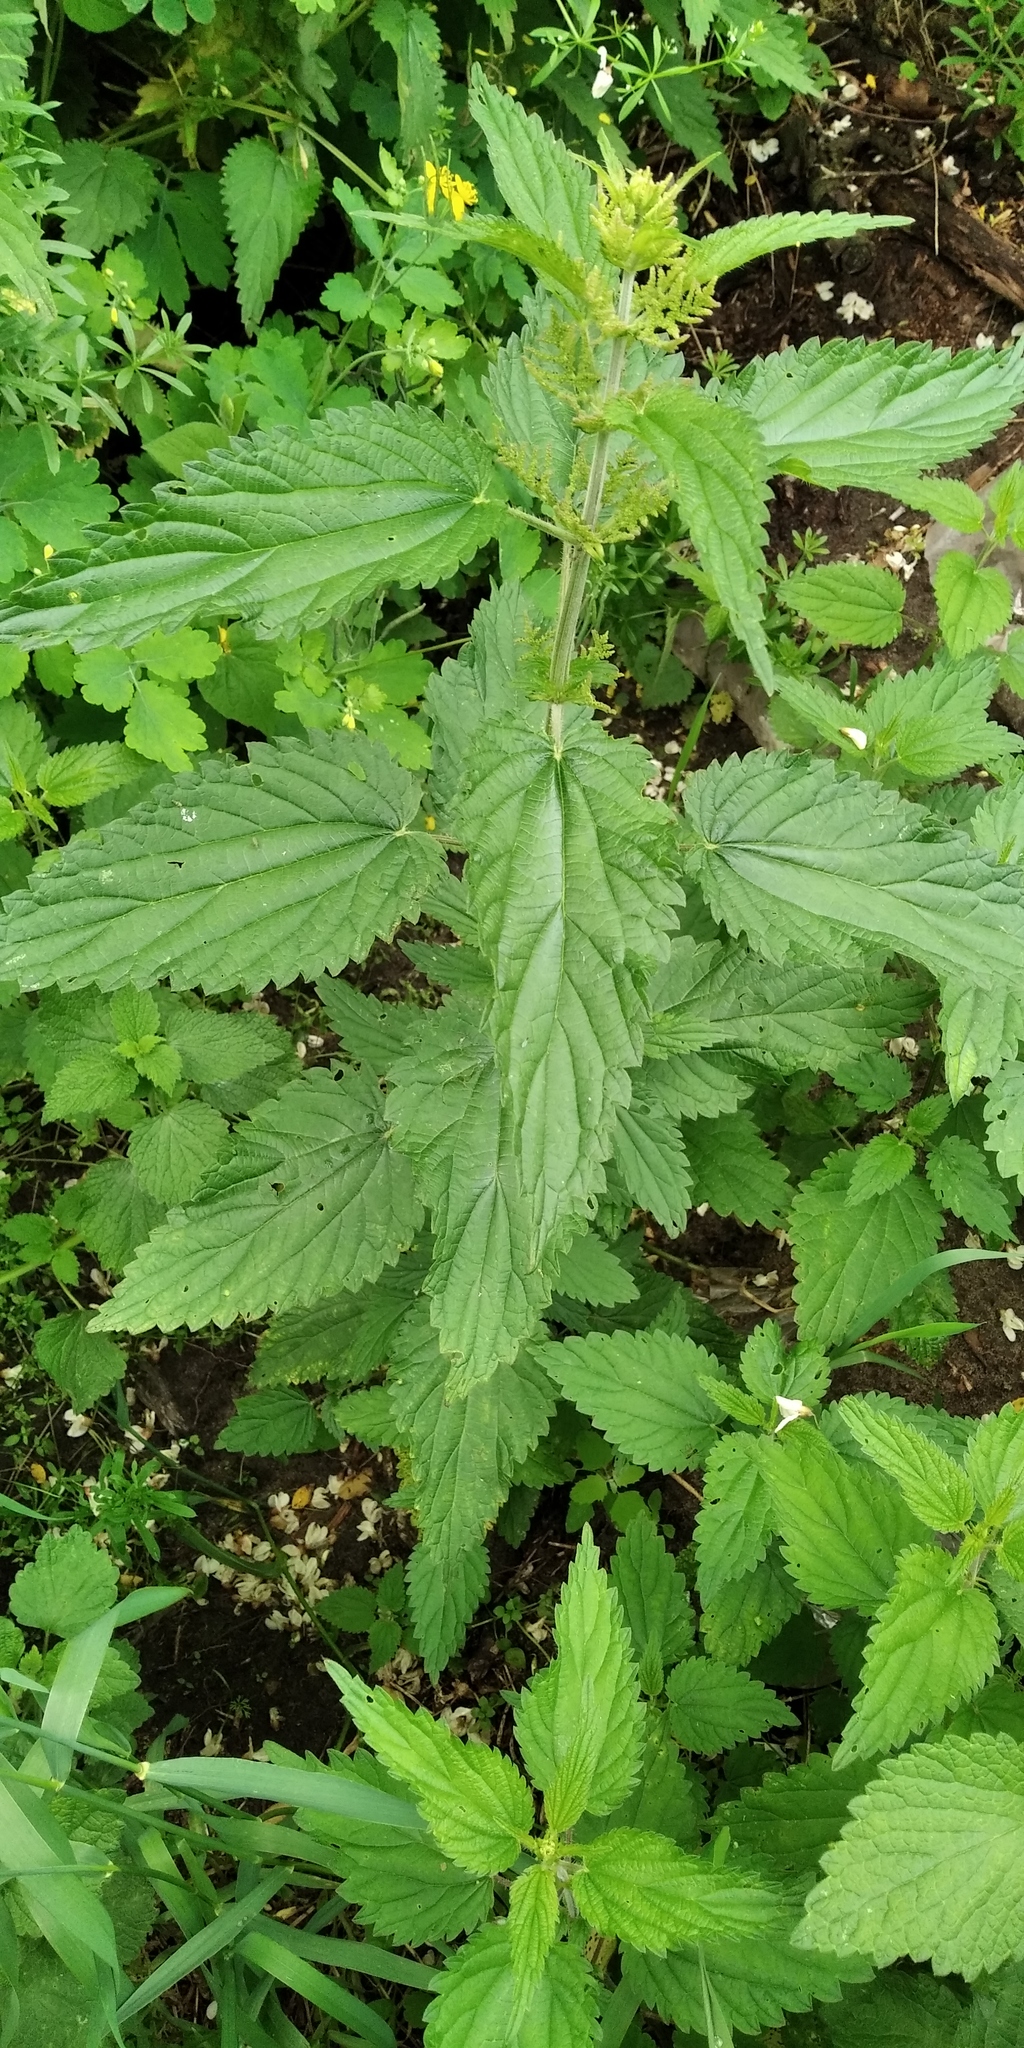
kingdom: Plantae
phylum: Tracheophyta
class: Magnoliopsida
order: Rosales
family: Urticaceae
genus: Urtica
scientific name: Urtica galeopsifolia
